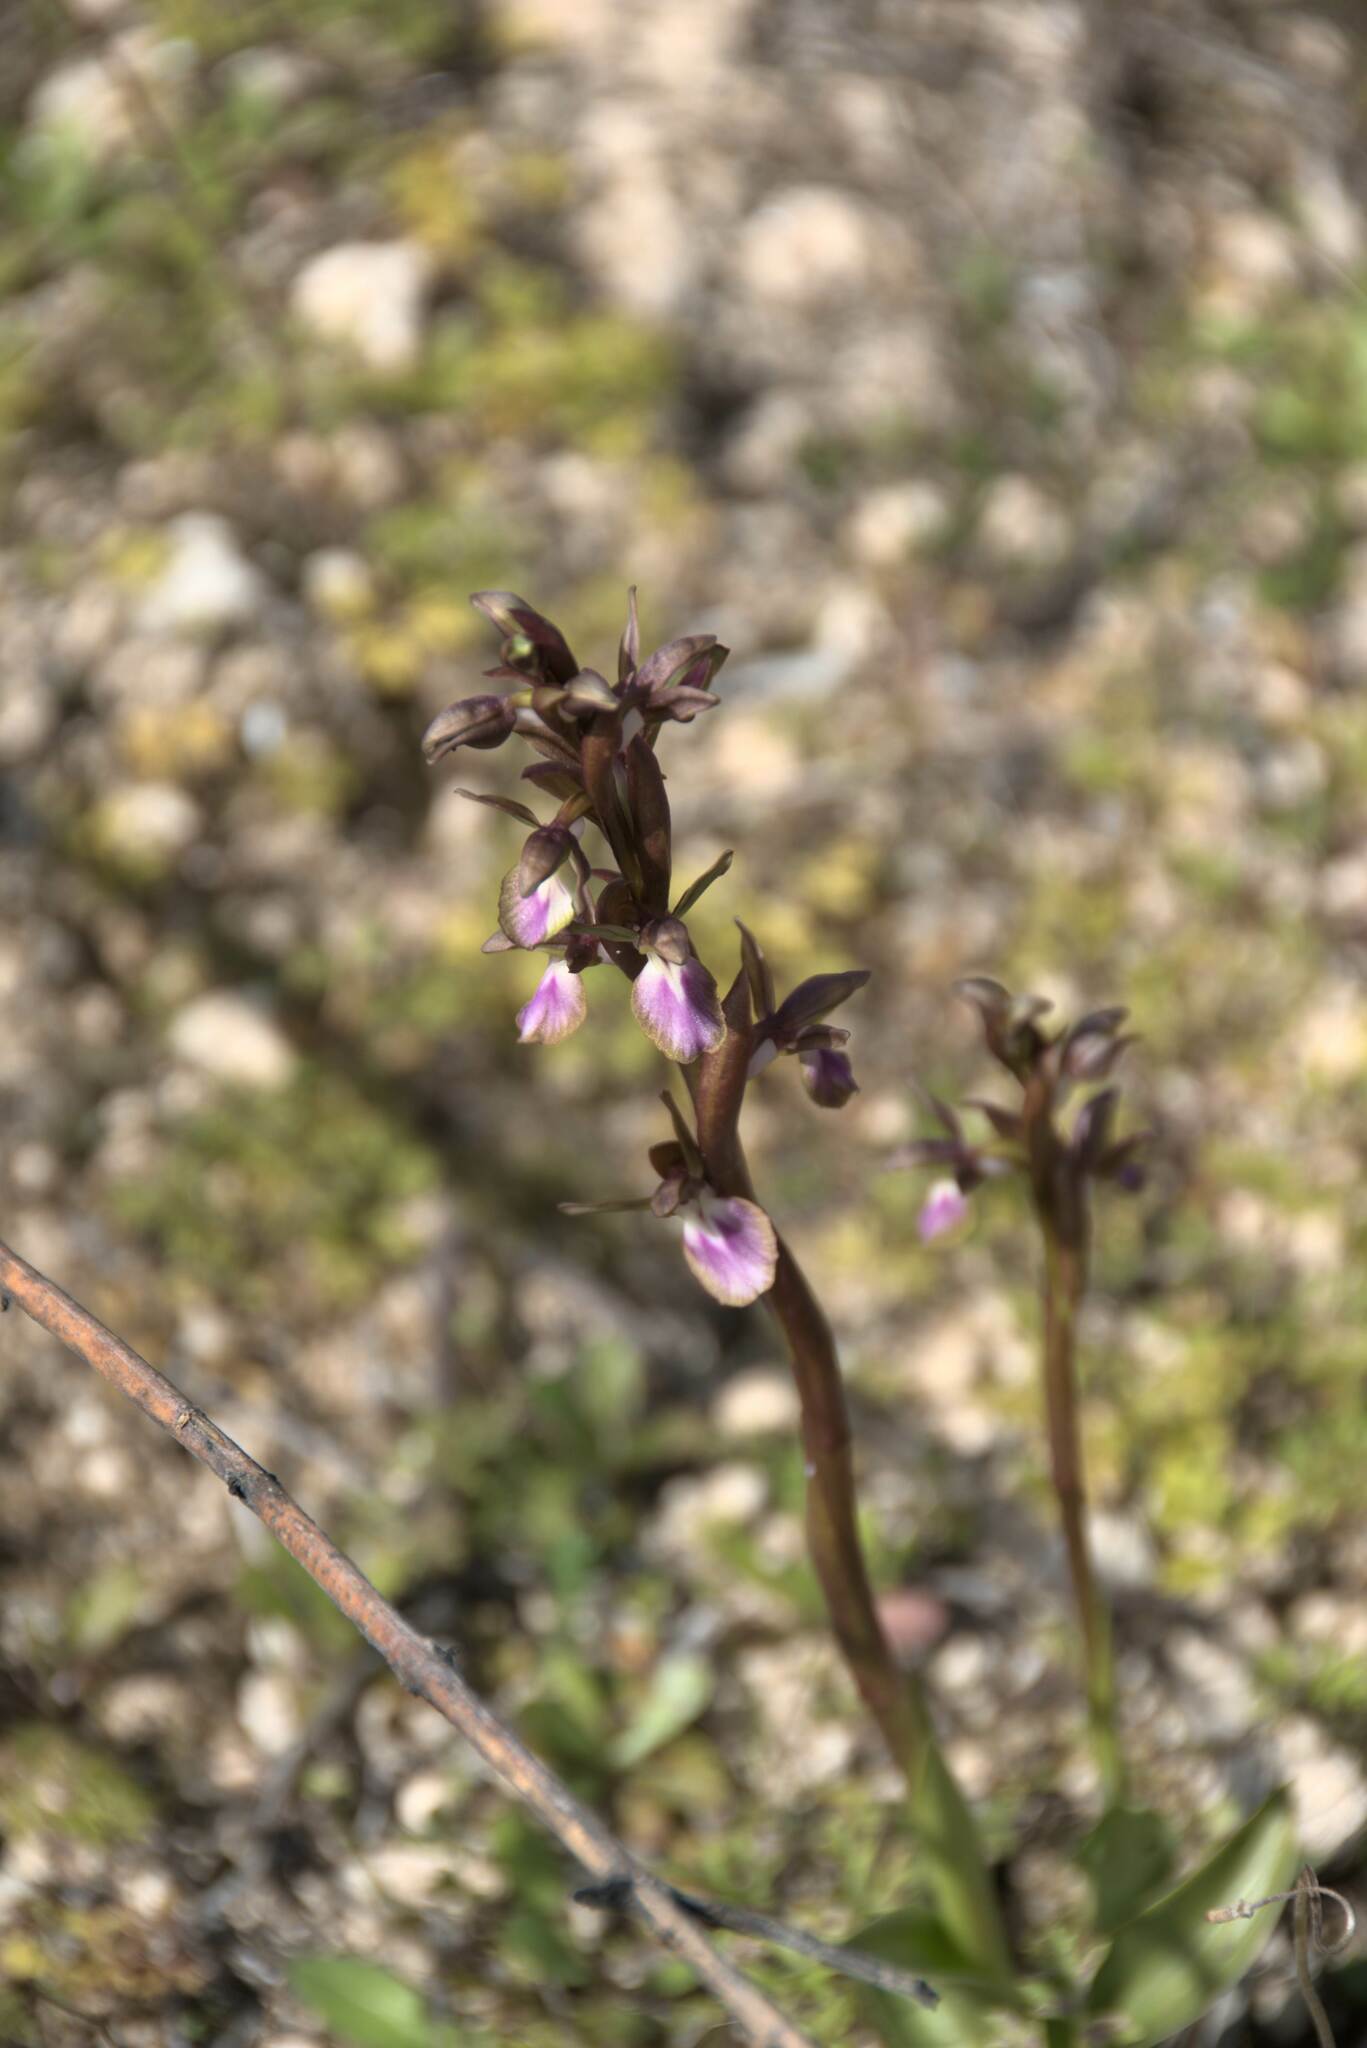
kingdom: Plantae
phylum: Tracheophyta
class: Liliopsida
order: Asparagales
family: Orchidaceae
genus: Anacamptis
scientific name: Anacamptis collina
